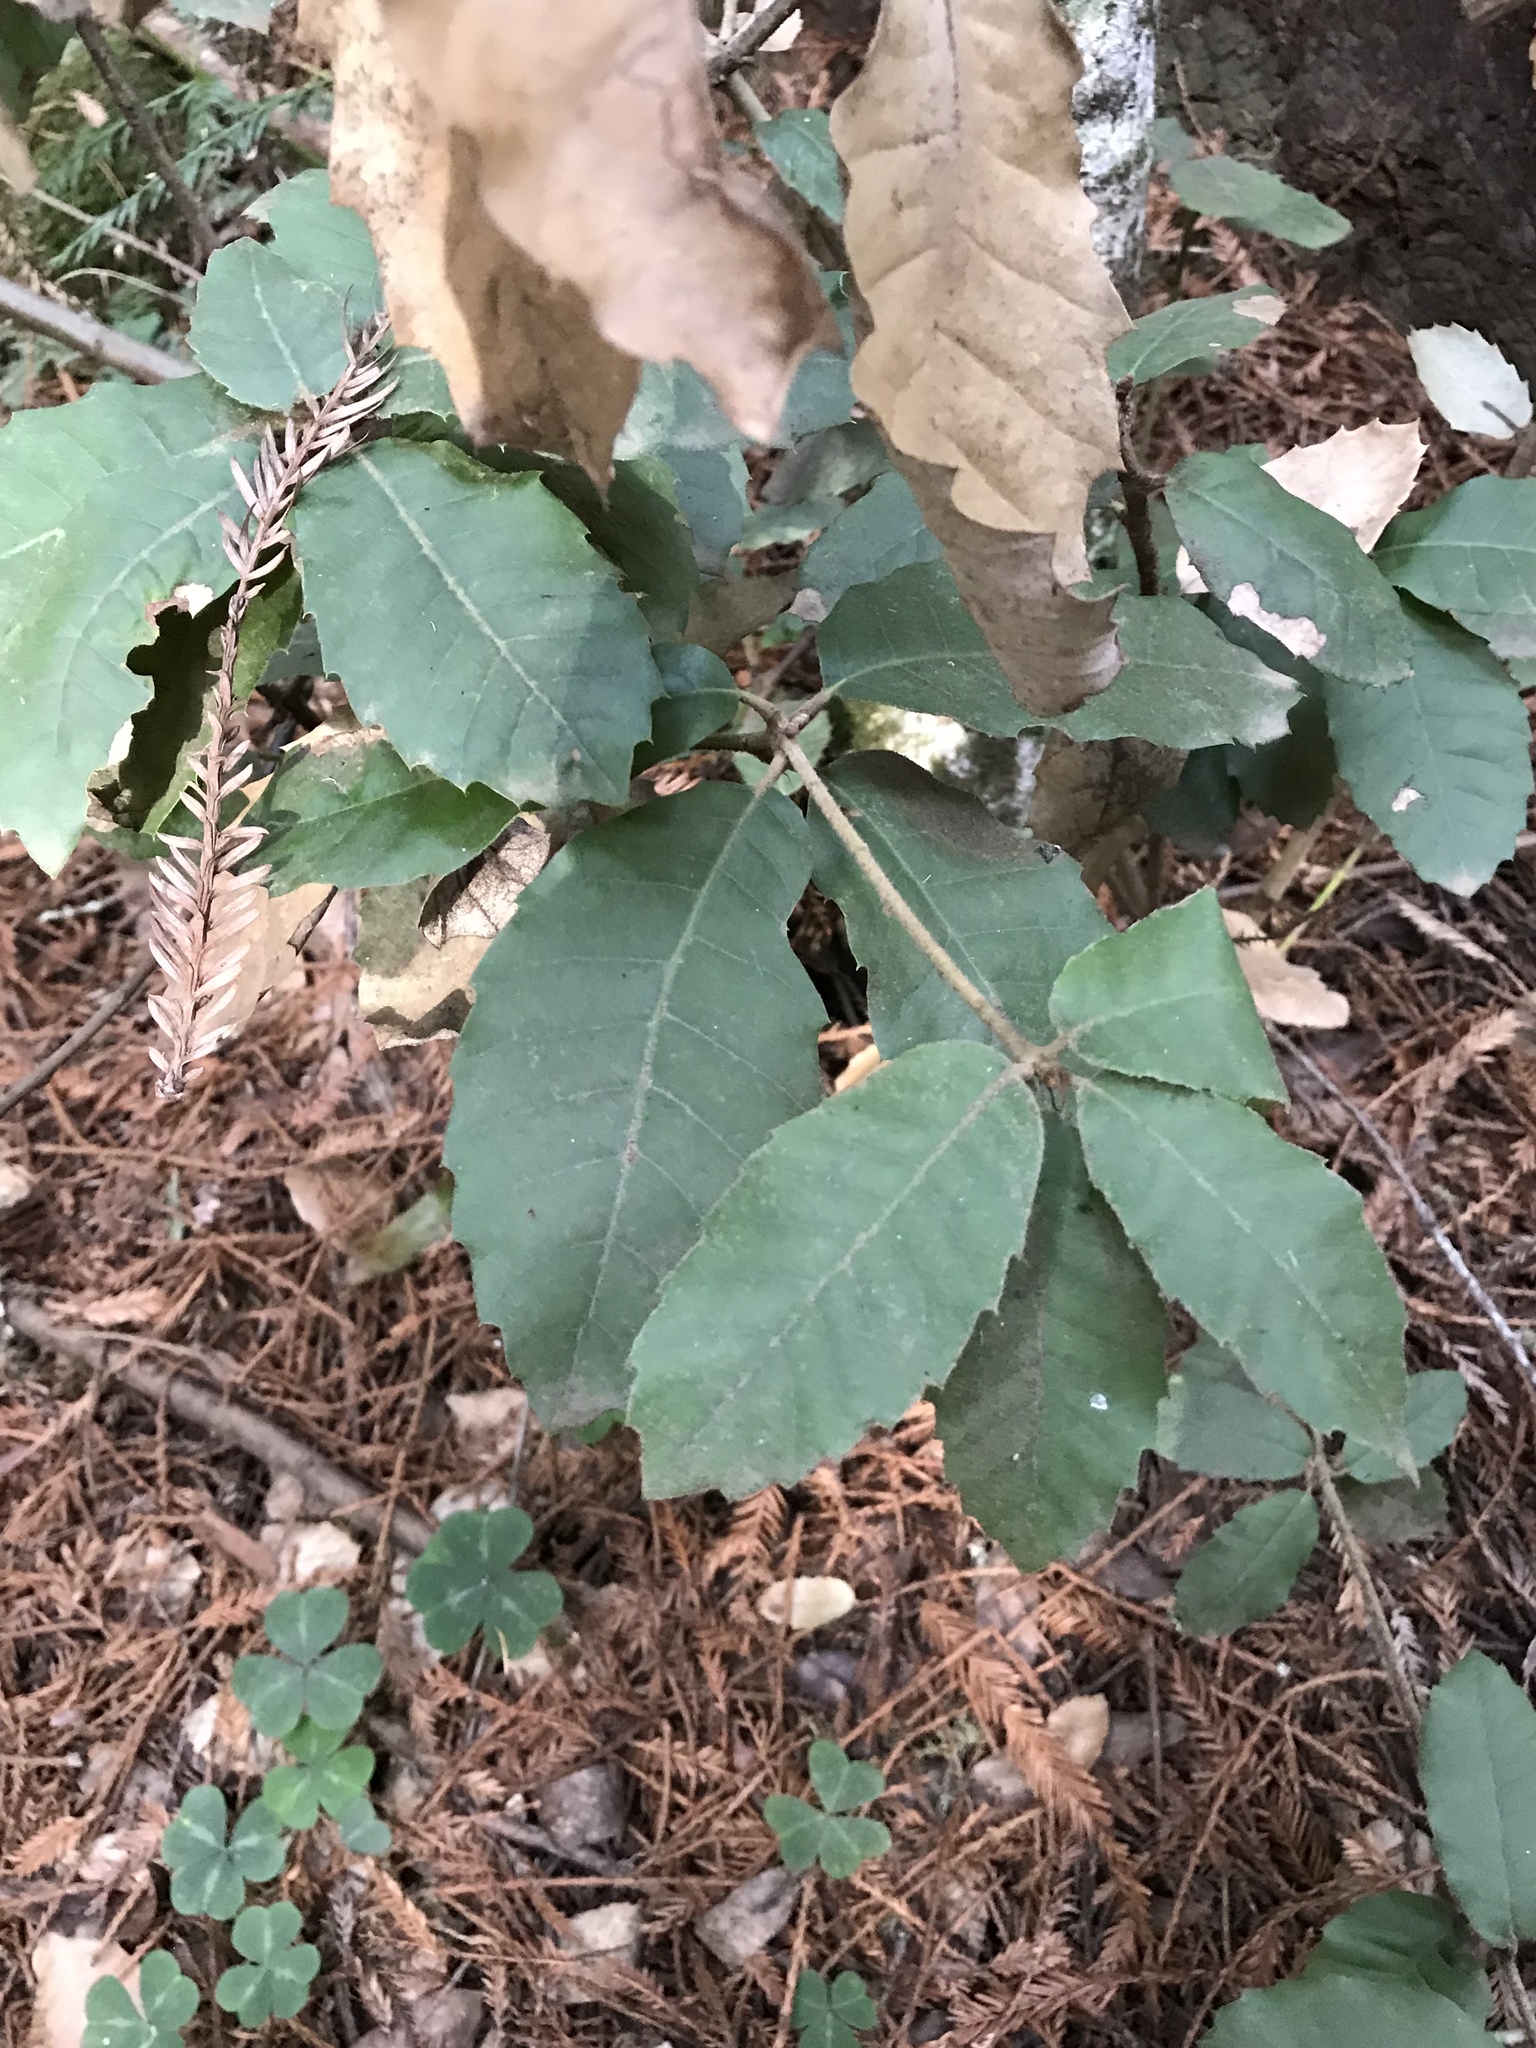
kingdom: Plantae
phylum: Tracheophyta
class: Magnoliopsida
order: Fagales
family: Fagaceae
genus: Notholithocarpus
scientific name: Notholithocarpus densiflorus
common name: Tan bark oak
